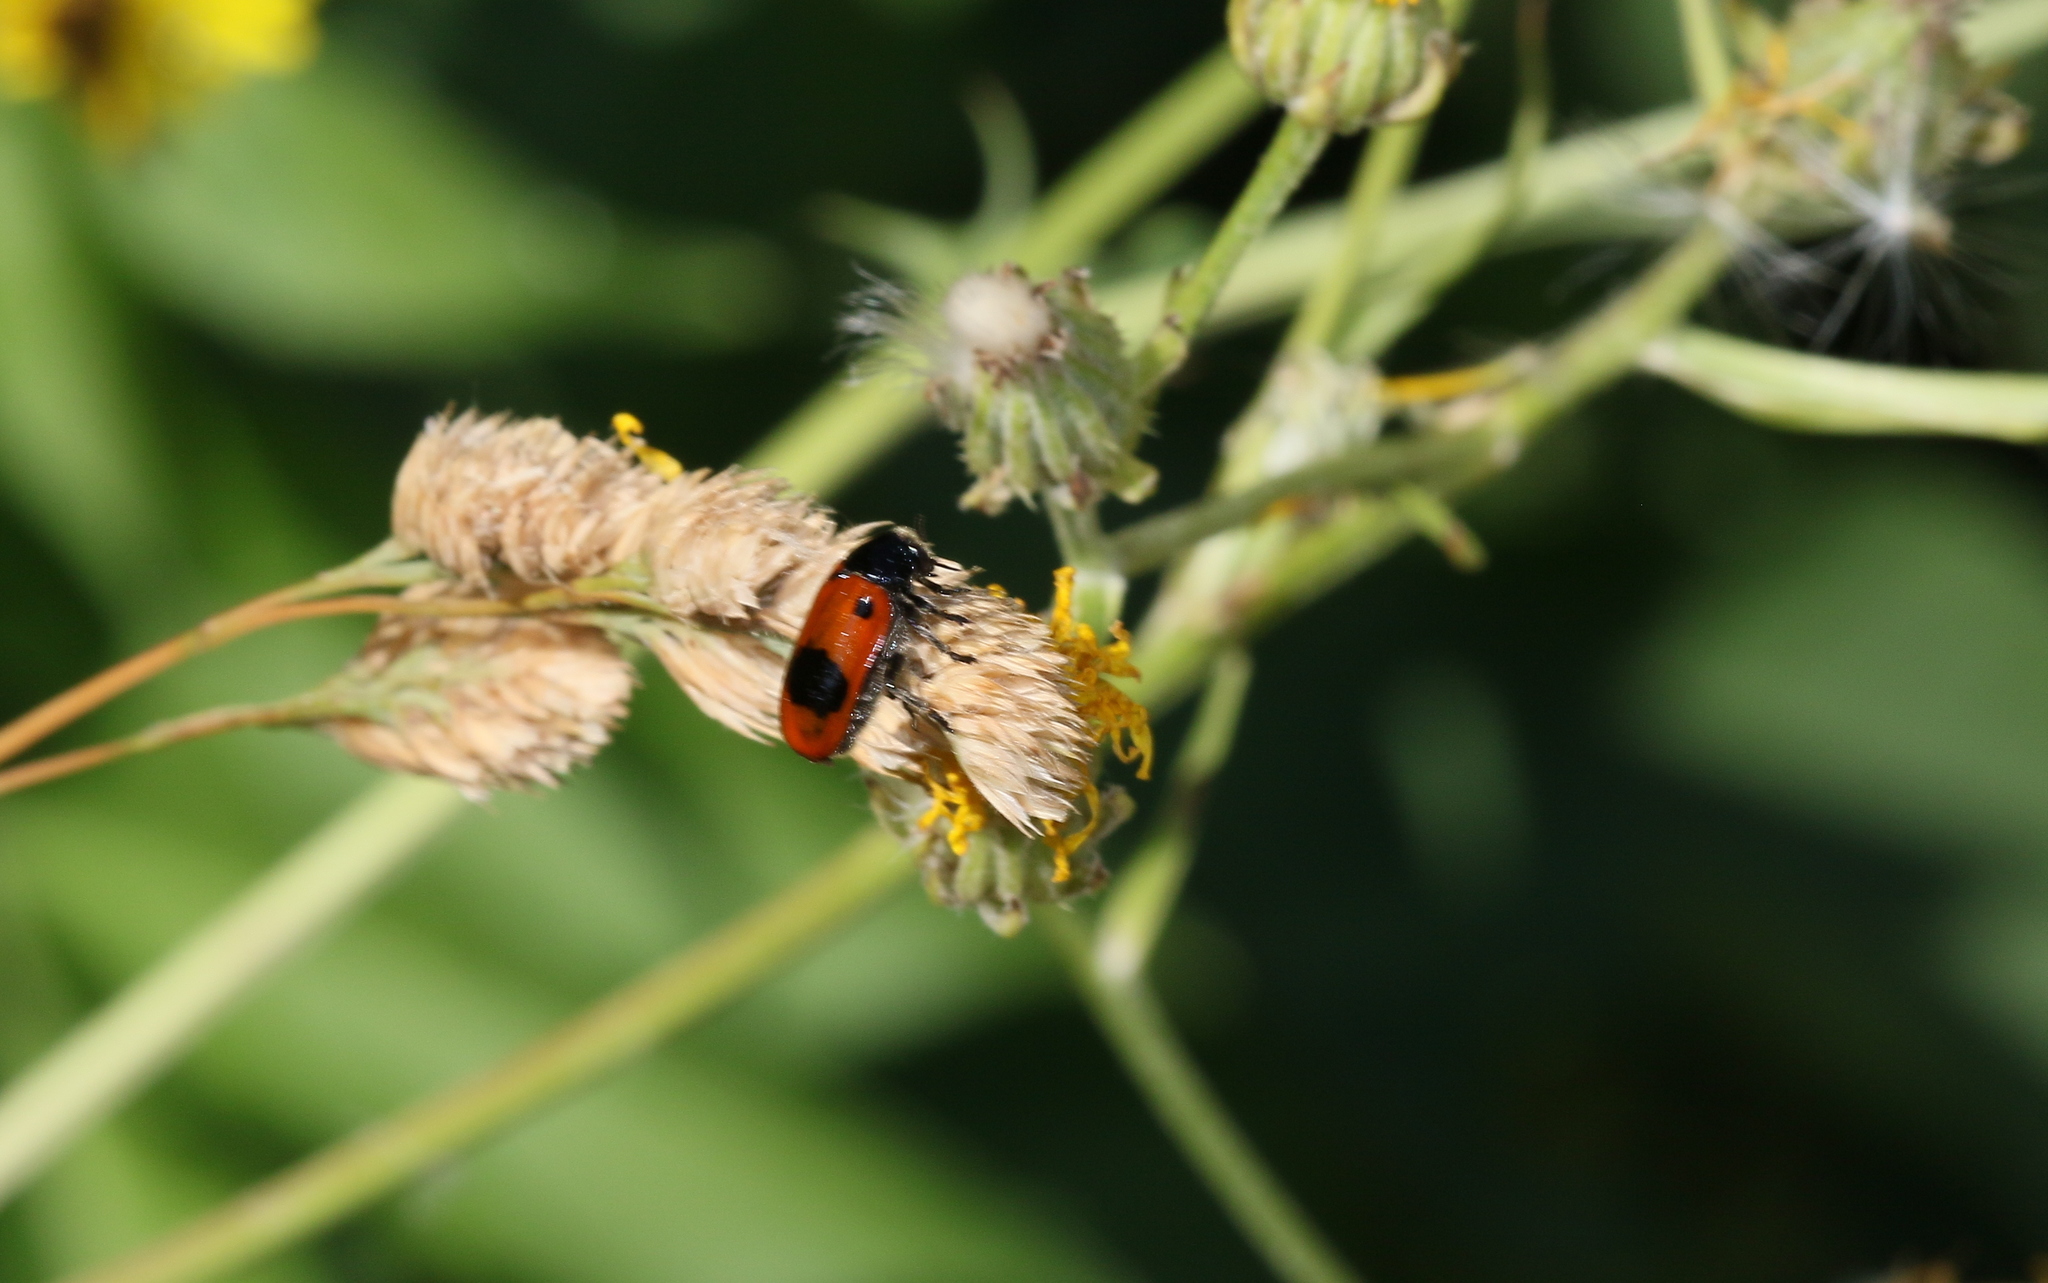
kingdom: Animalia
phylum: Arthropoda
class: Insecta
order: Coleoptera
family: Chrysomelidae
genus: Clytra
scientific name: Clytra laeviuscula
